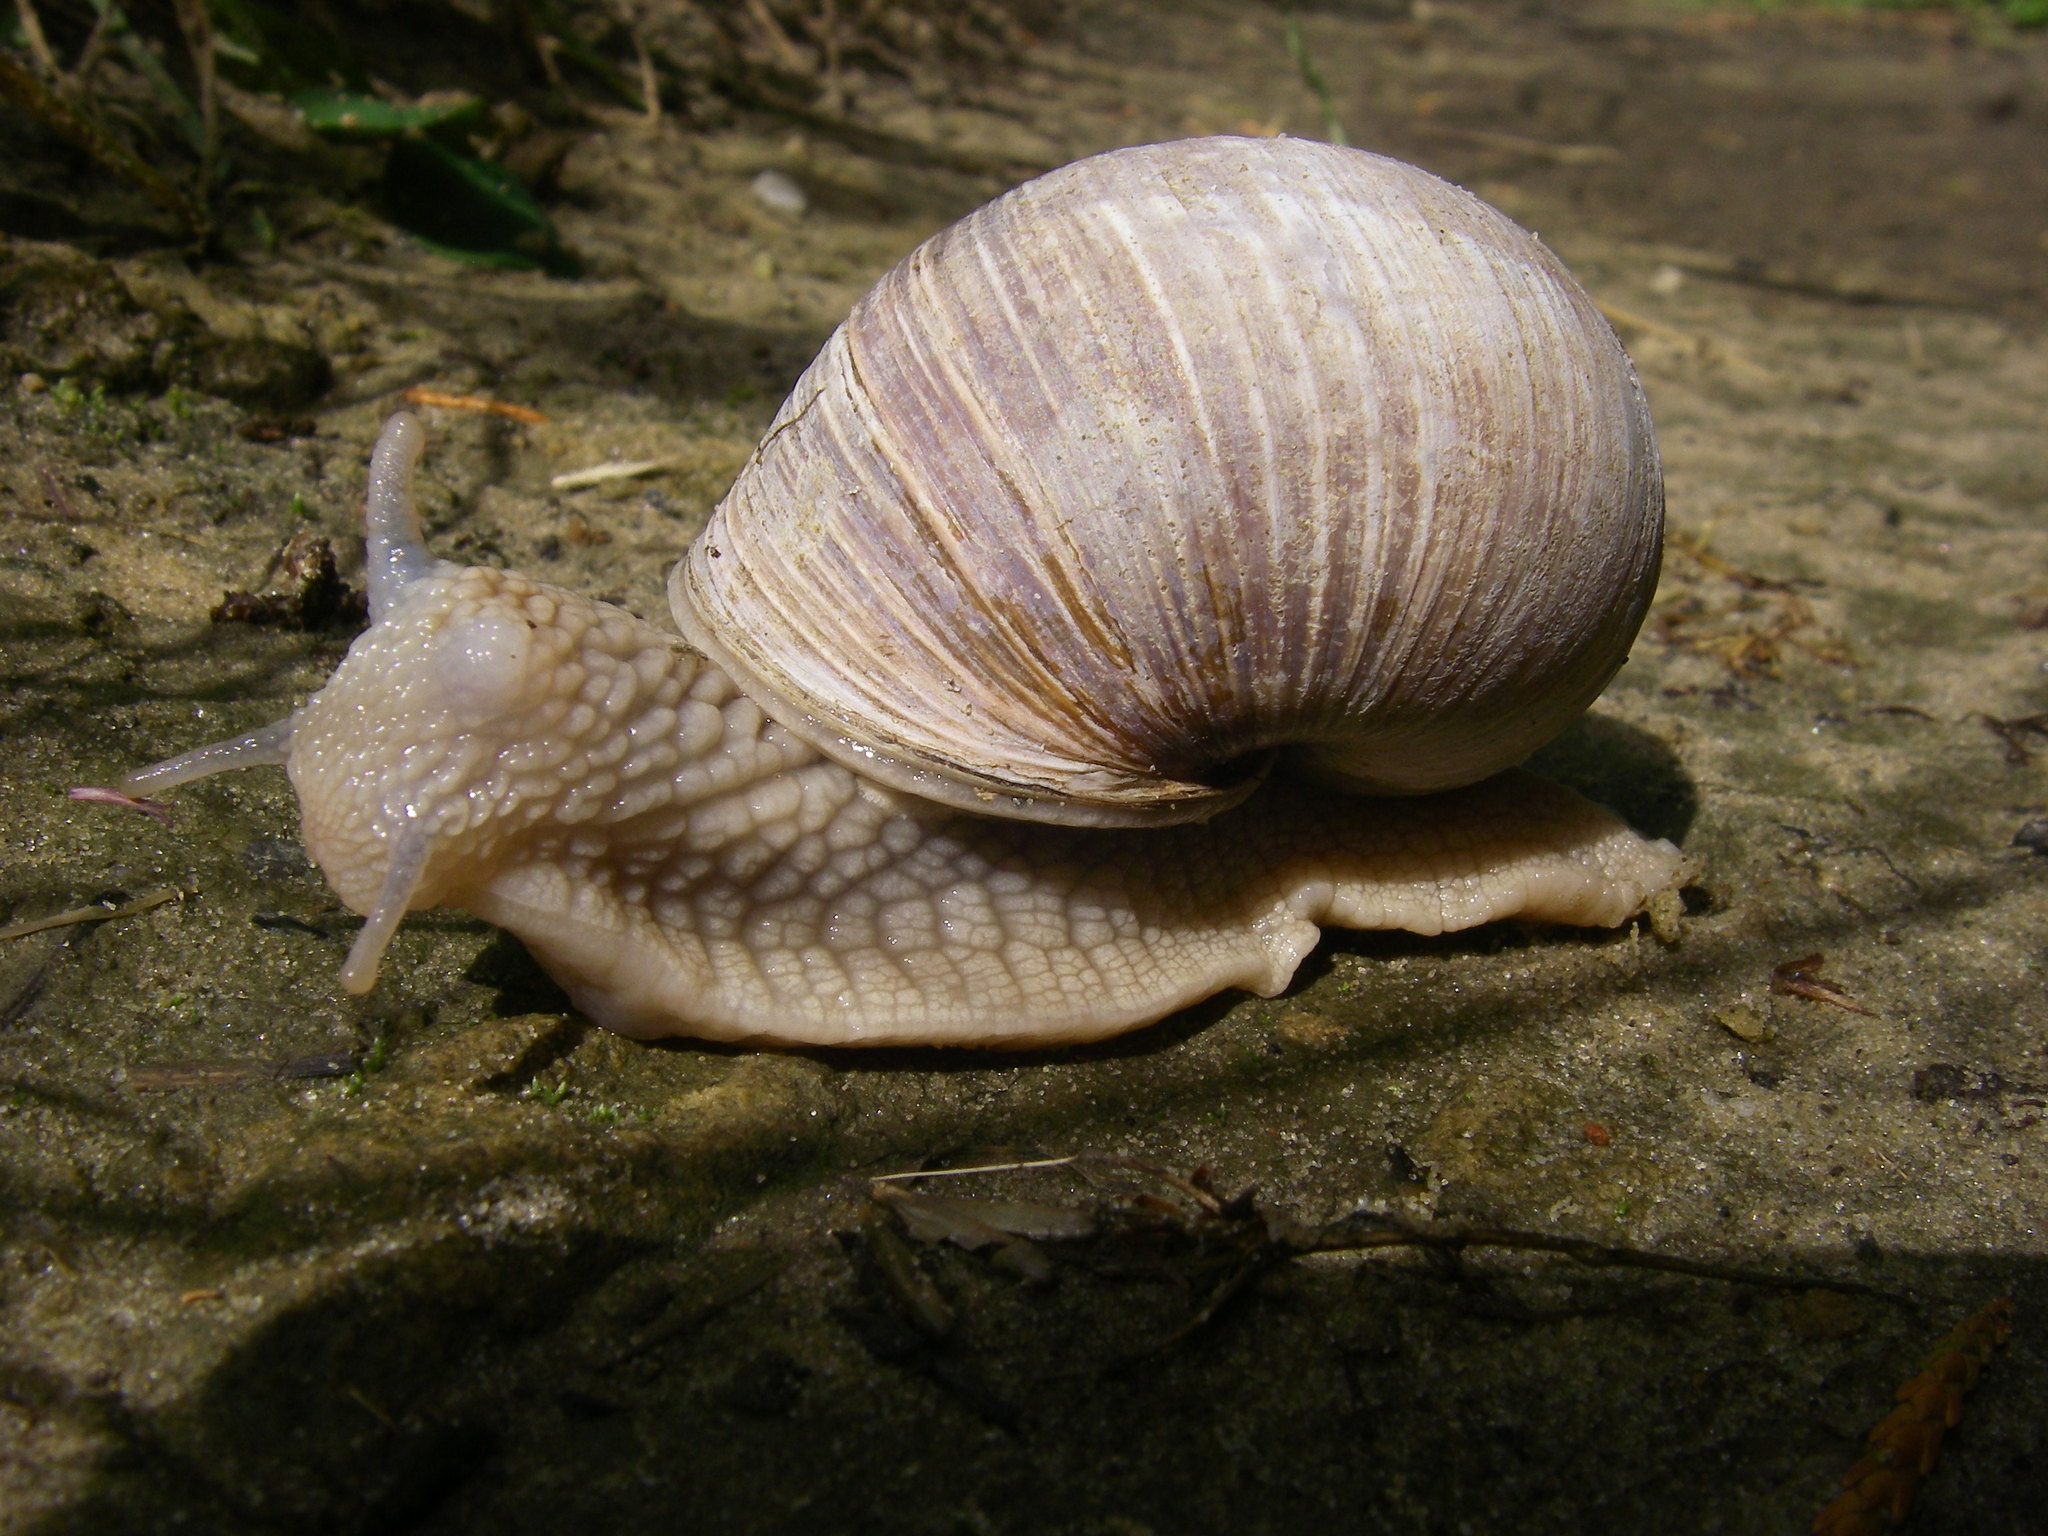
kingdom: Animalia
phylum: Mollusca
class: Gastropoda
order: Stylommatophora
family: Helicidae
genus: Helix
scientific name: Helix pomatia
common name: Roman snail
